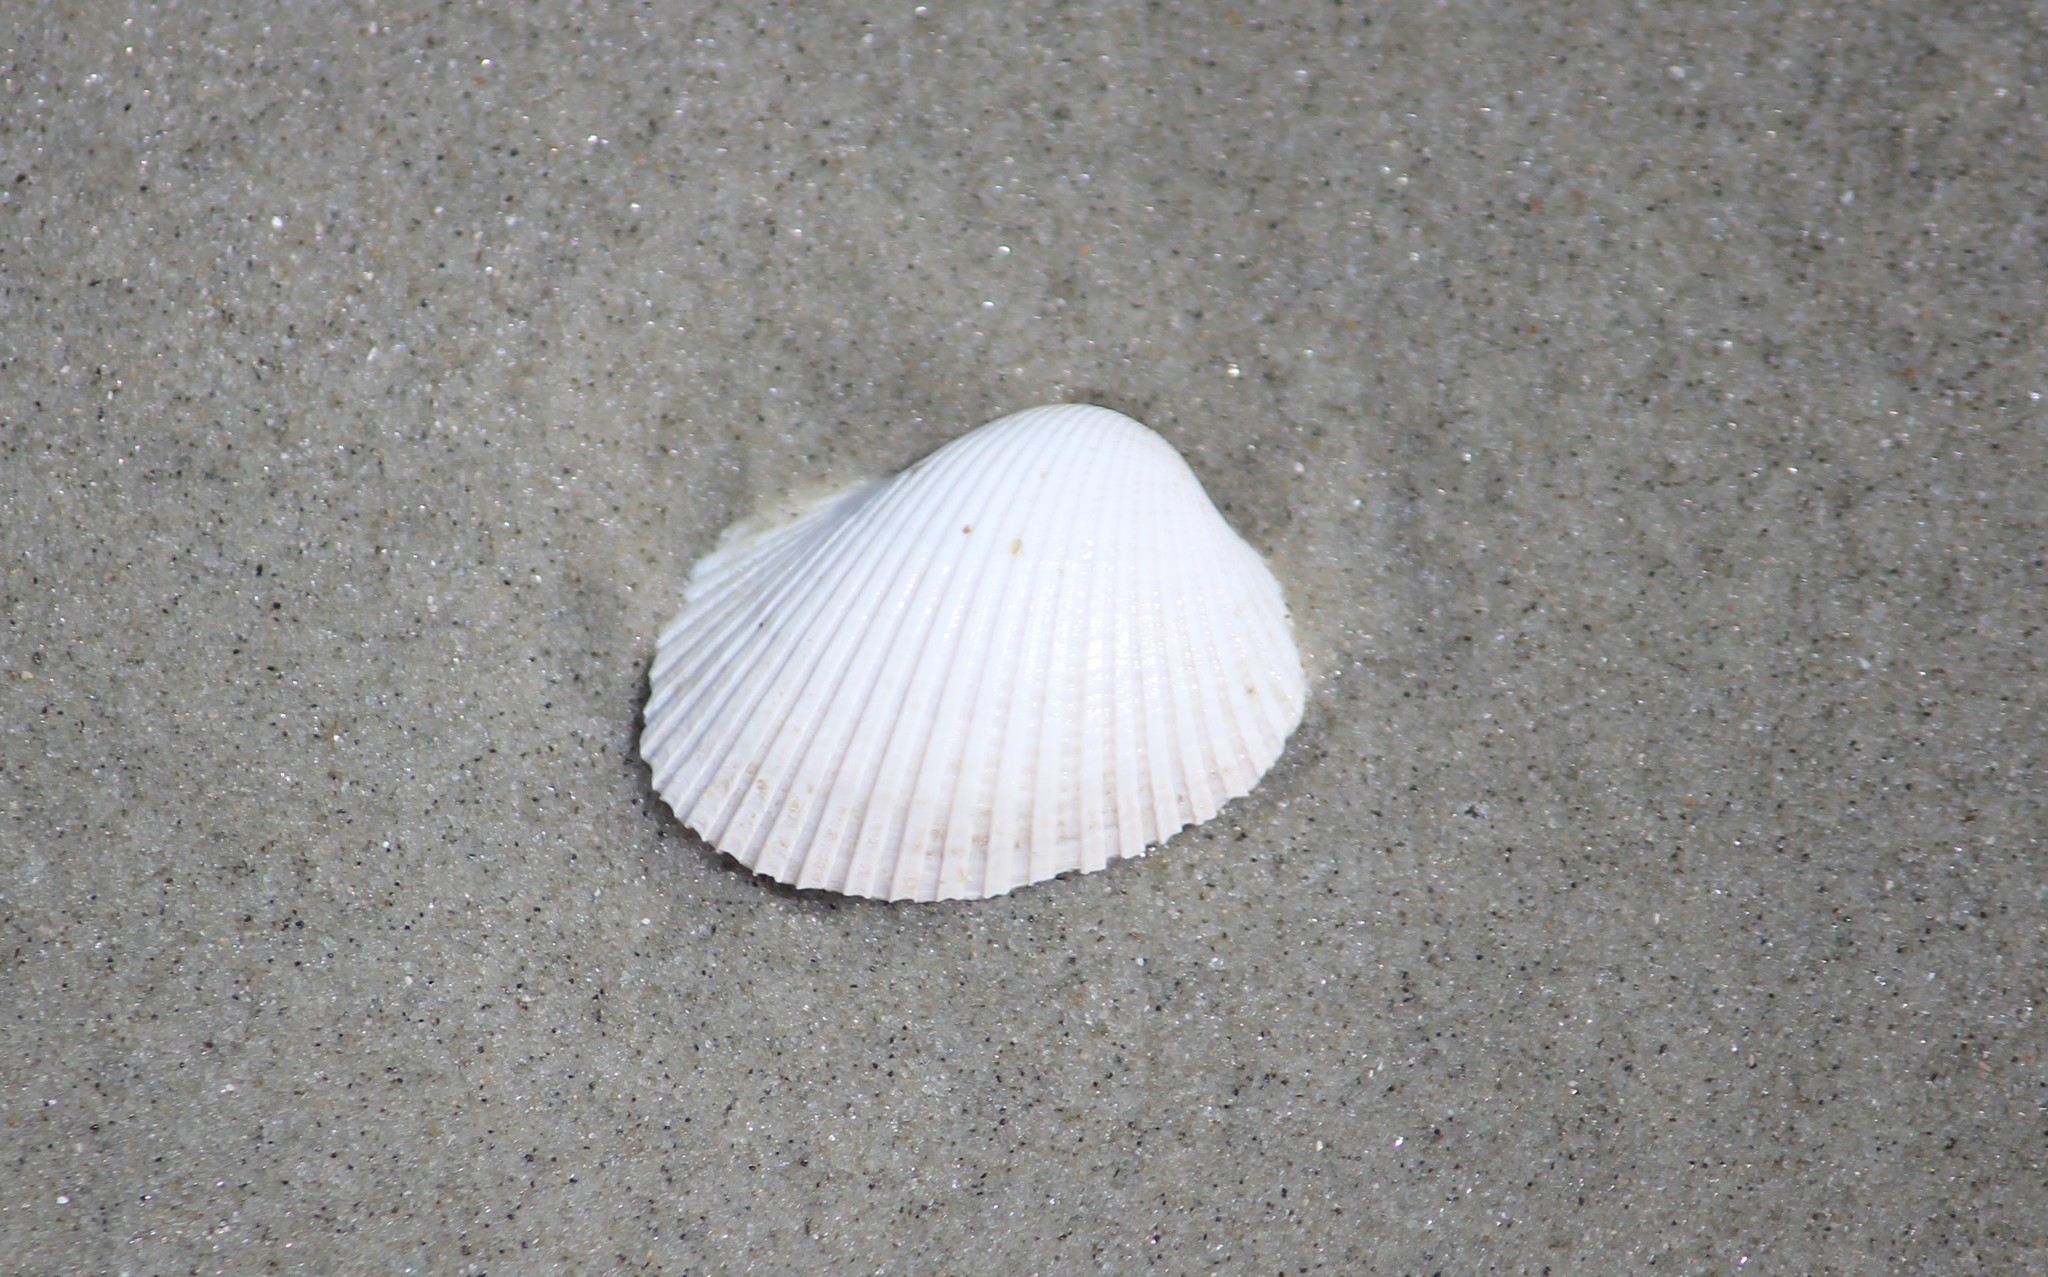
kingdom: Animalia
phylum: Mollusca
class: Bivalvia
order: Arcida
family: Arcidae
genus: Lunarca
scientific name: Lunarca ovalis
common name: Blood ark
